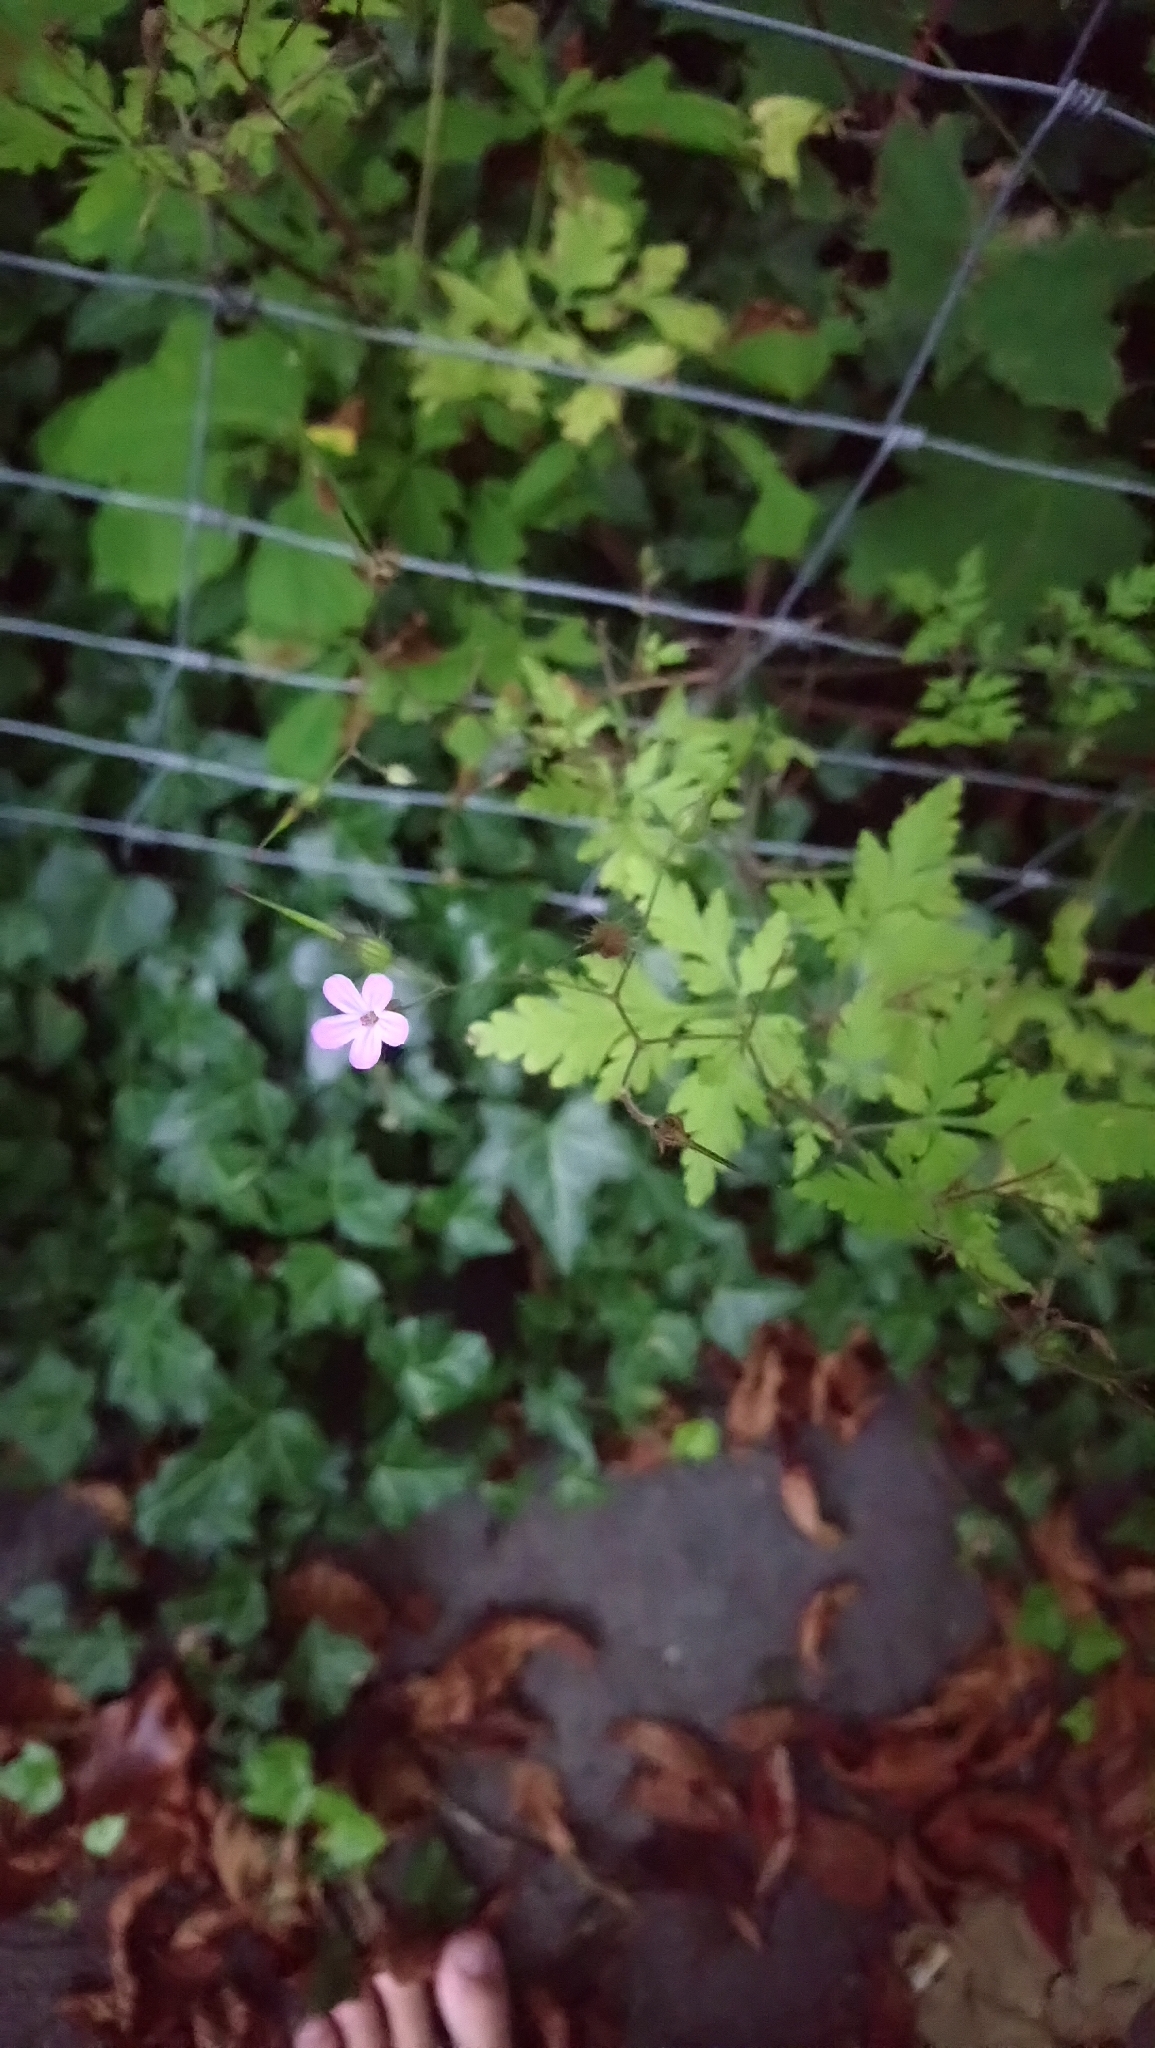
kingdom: Plantae
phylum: Tracheophyta
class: Magnoliopsida
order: Geraniales
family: Geraniaceae
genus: Geranium
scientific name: Geranium robertianum
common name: Herb-robert
